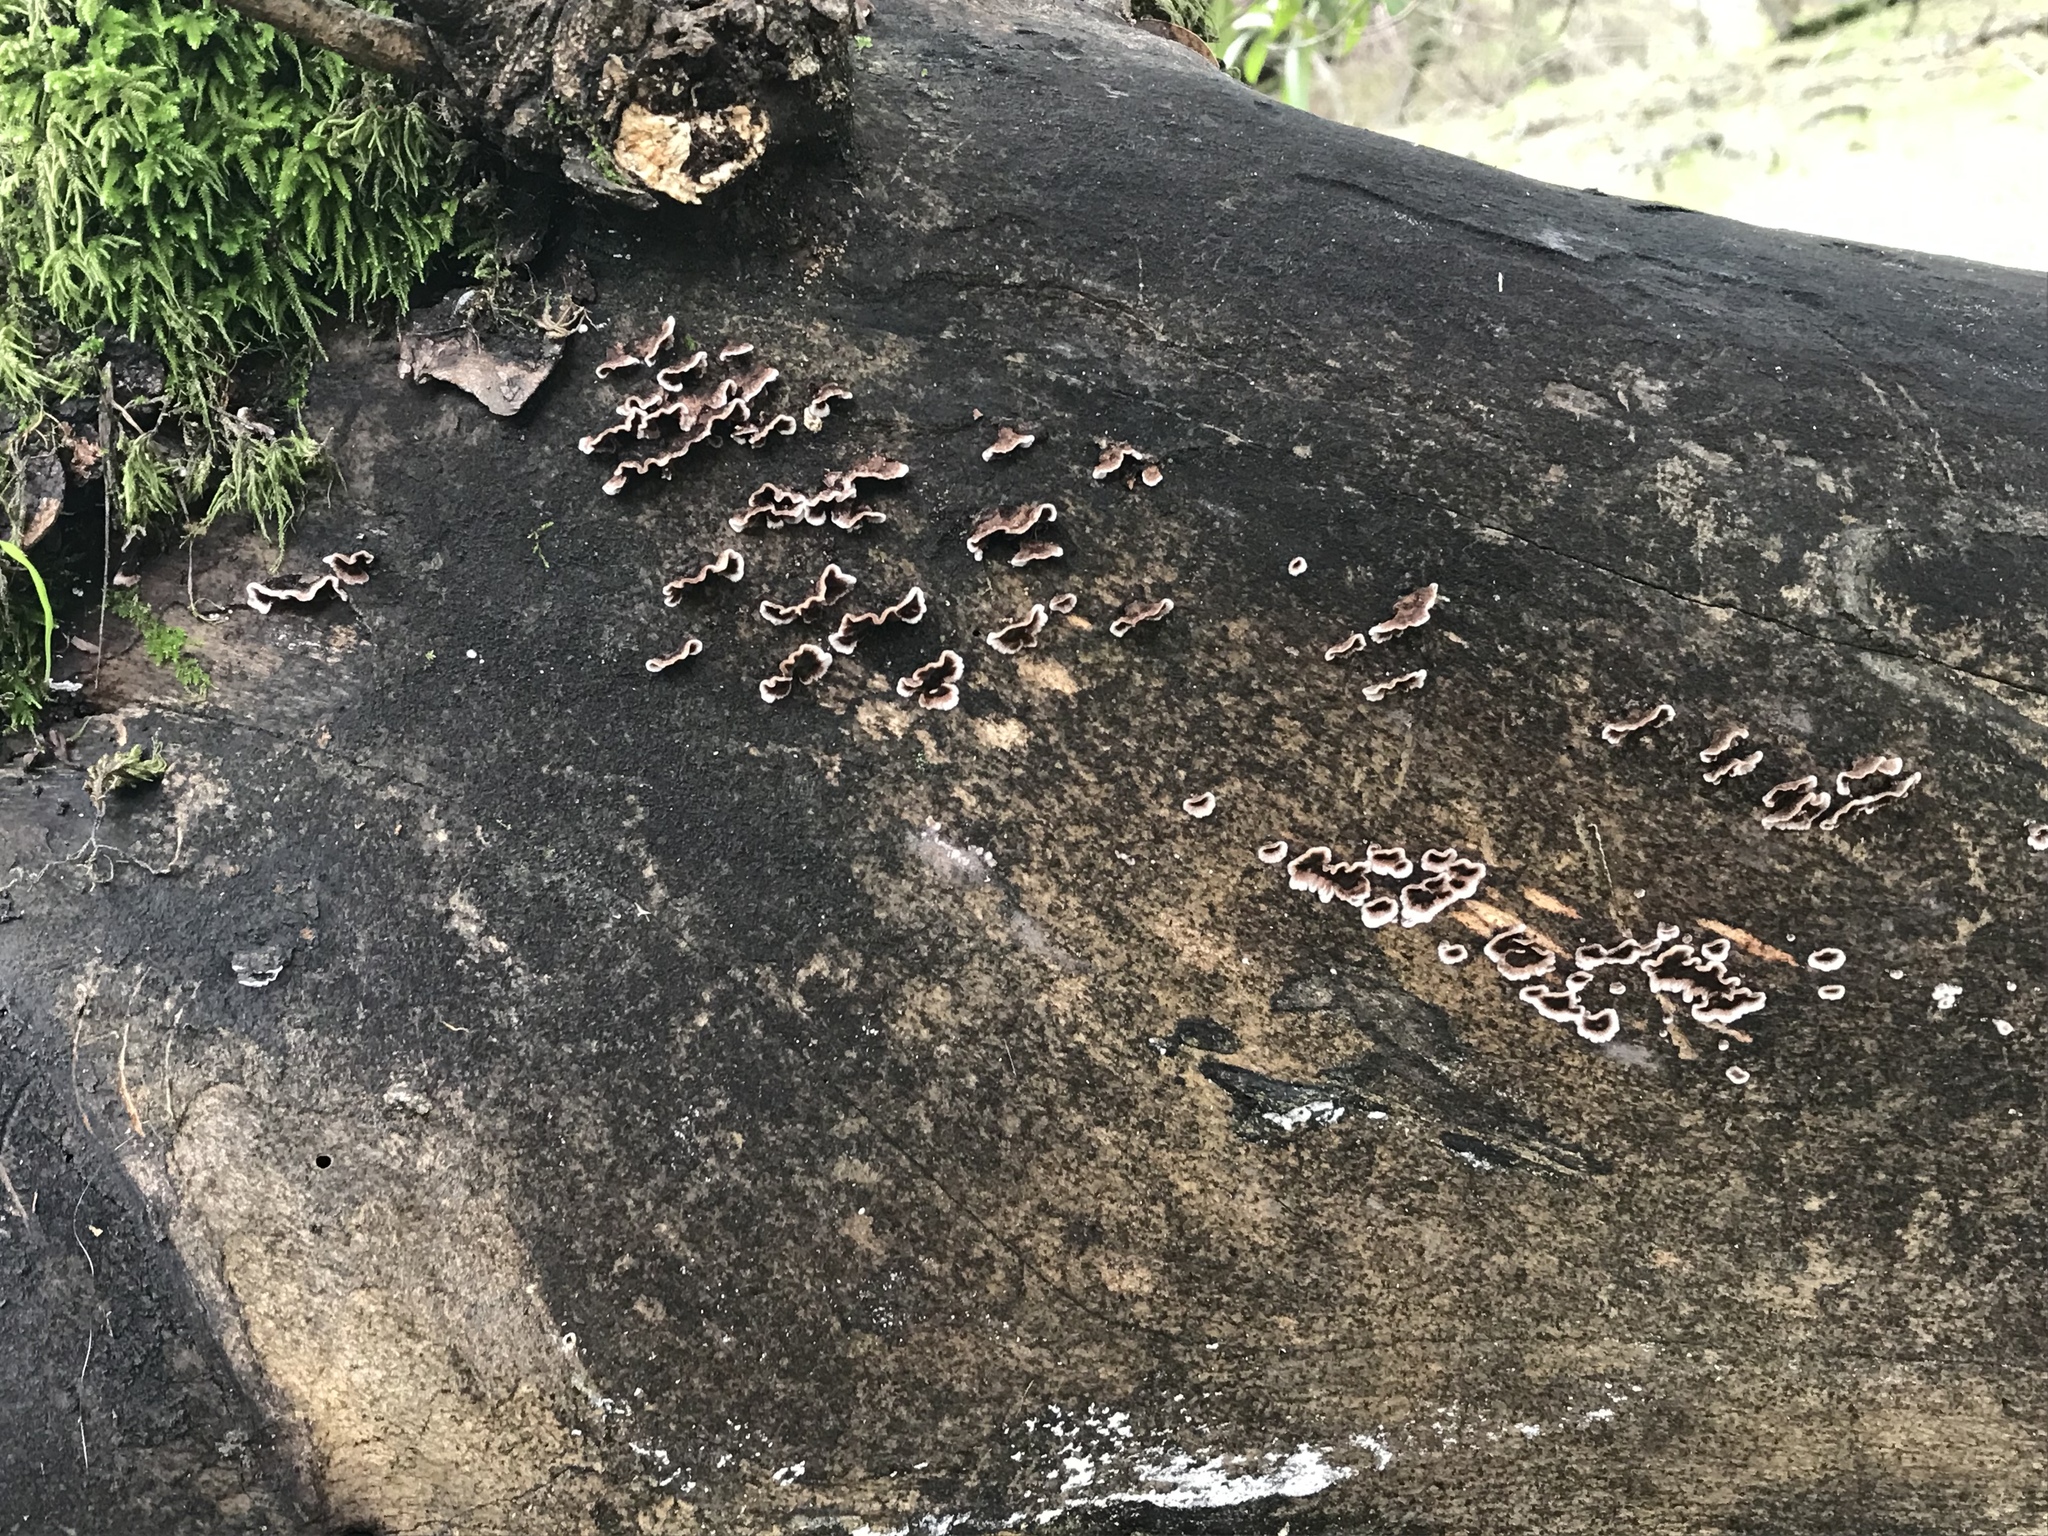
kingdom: Fungi
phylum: Basidiomycota
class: Agaricomycetes
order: Russulales
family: Peniophoraceae
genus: Peniophora
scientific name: Peniophora albobadia
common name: Giraffe spots
